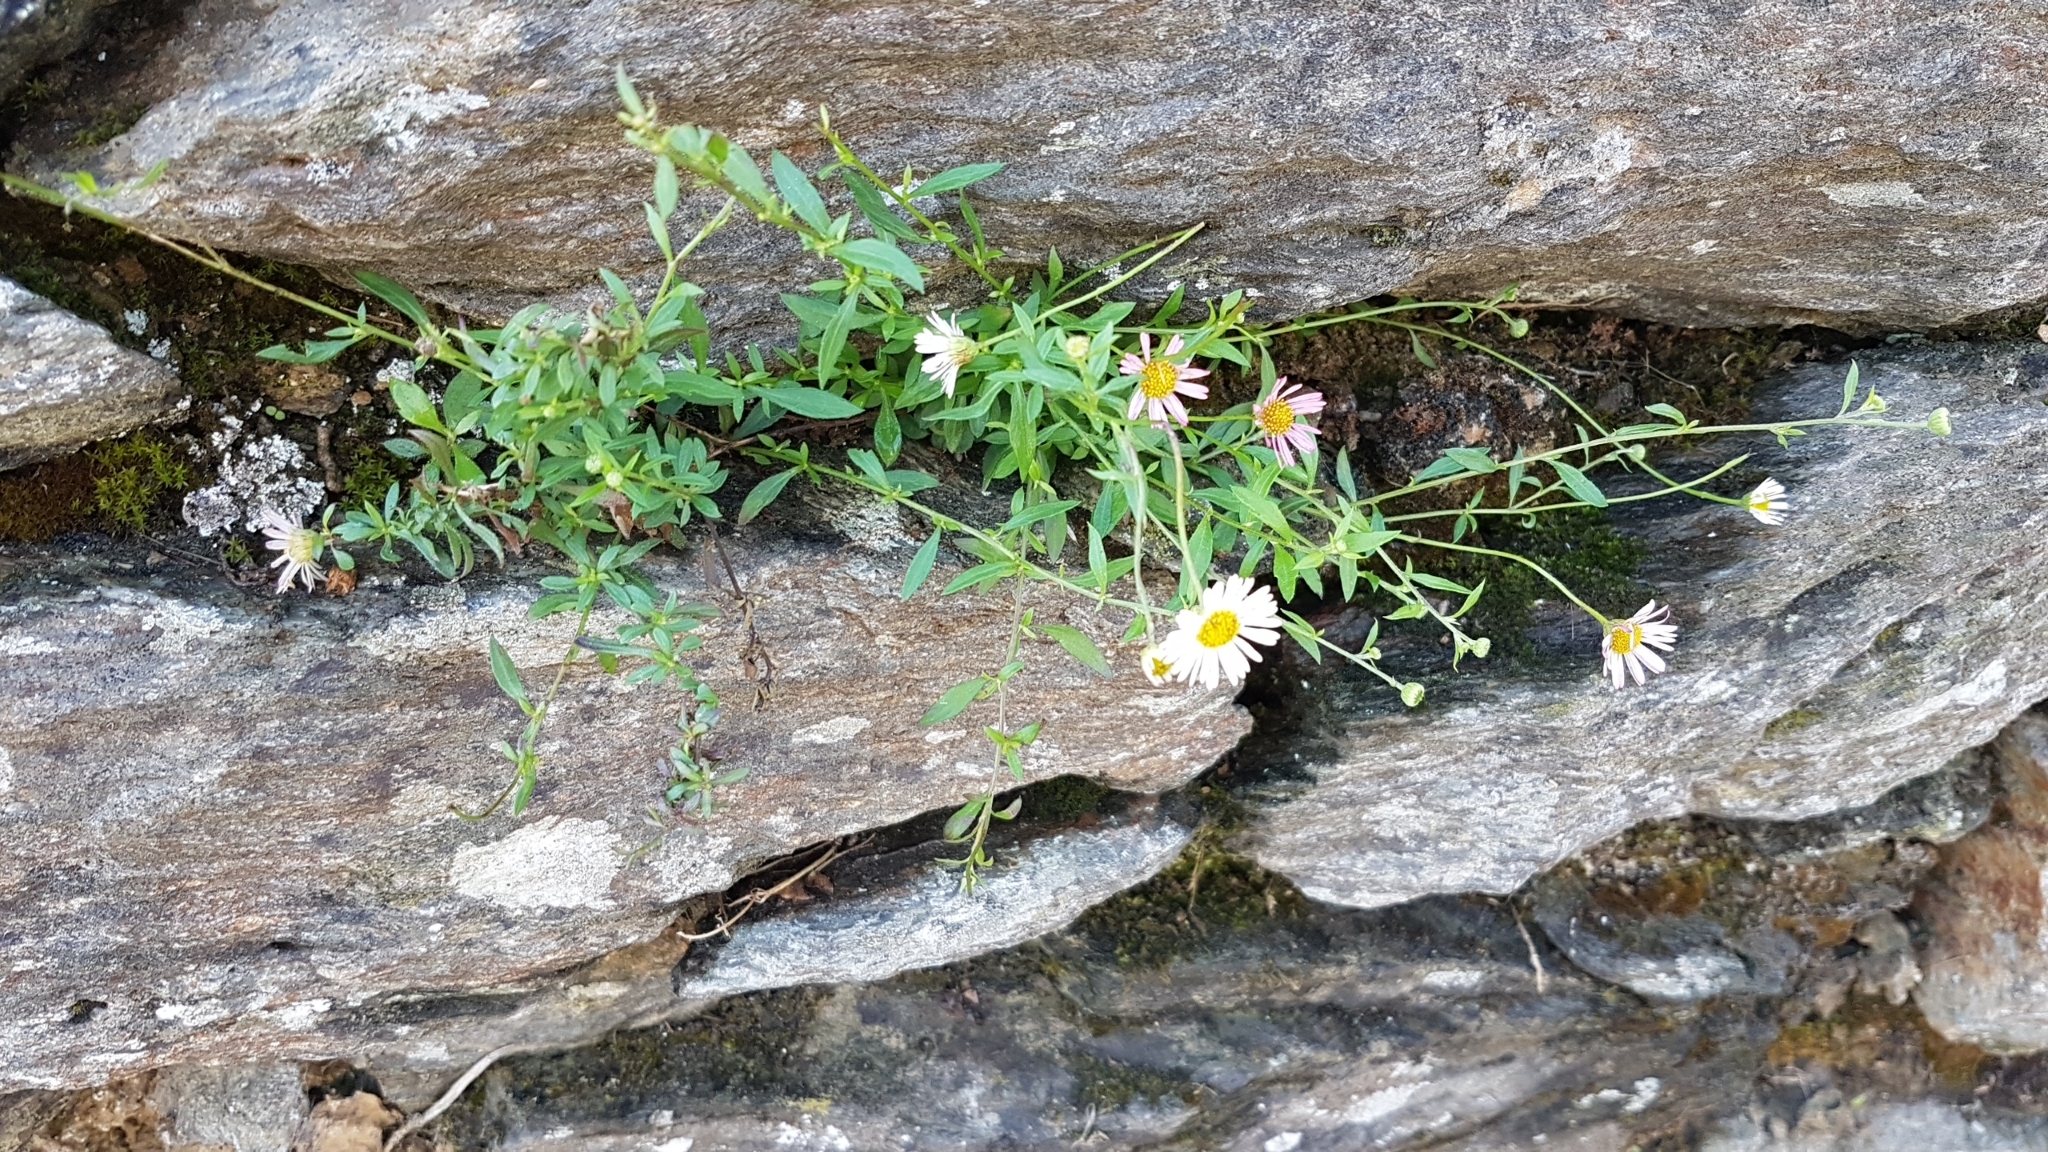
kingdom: Plantae
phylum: Tracheophyta
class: Magnoliopsida
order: Asterales
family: Asteraceae
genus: Erigeron
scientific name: Erigeron karvinskianus
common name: Mexican fleabane
